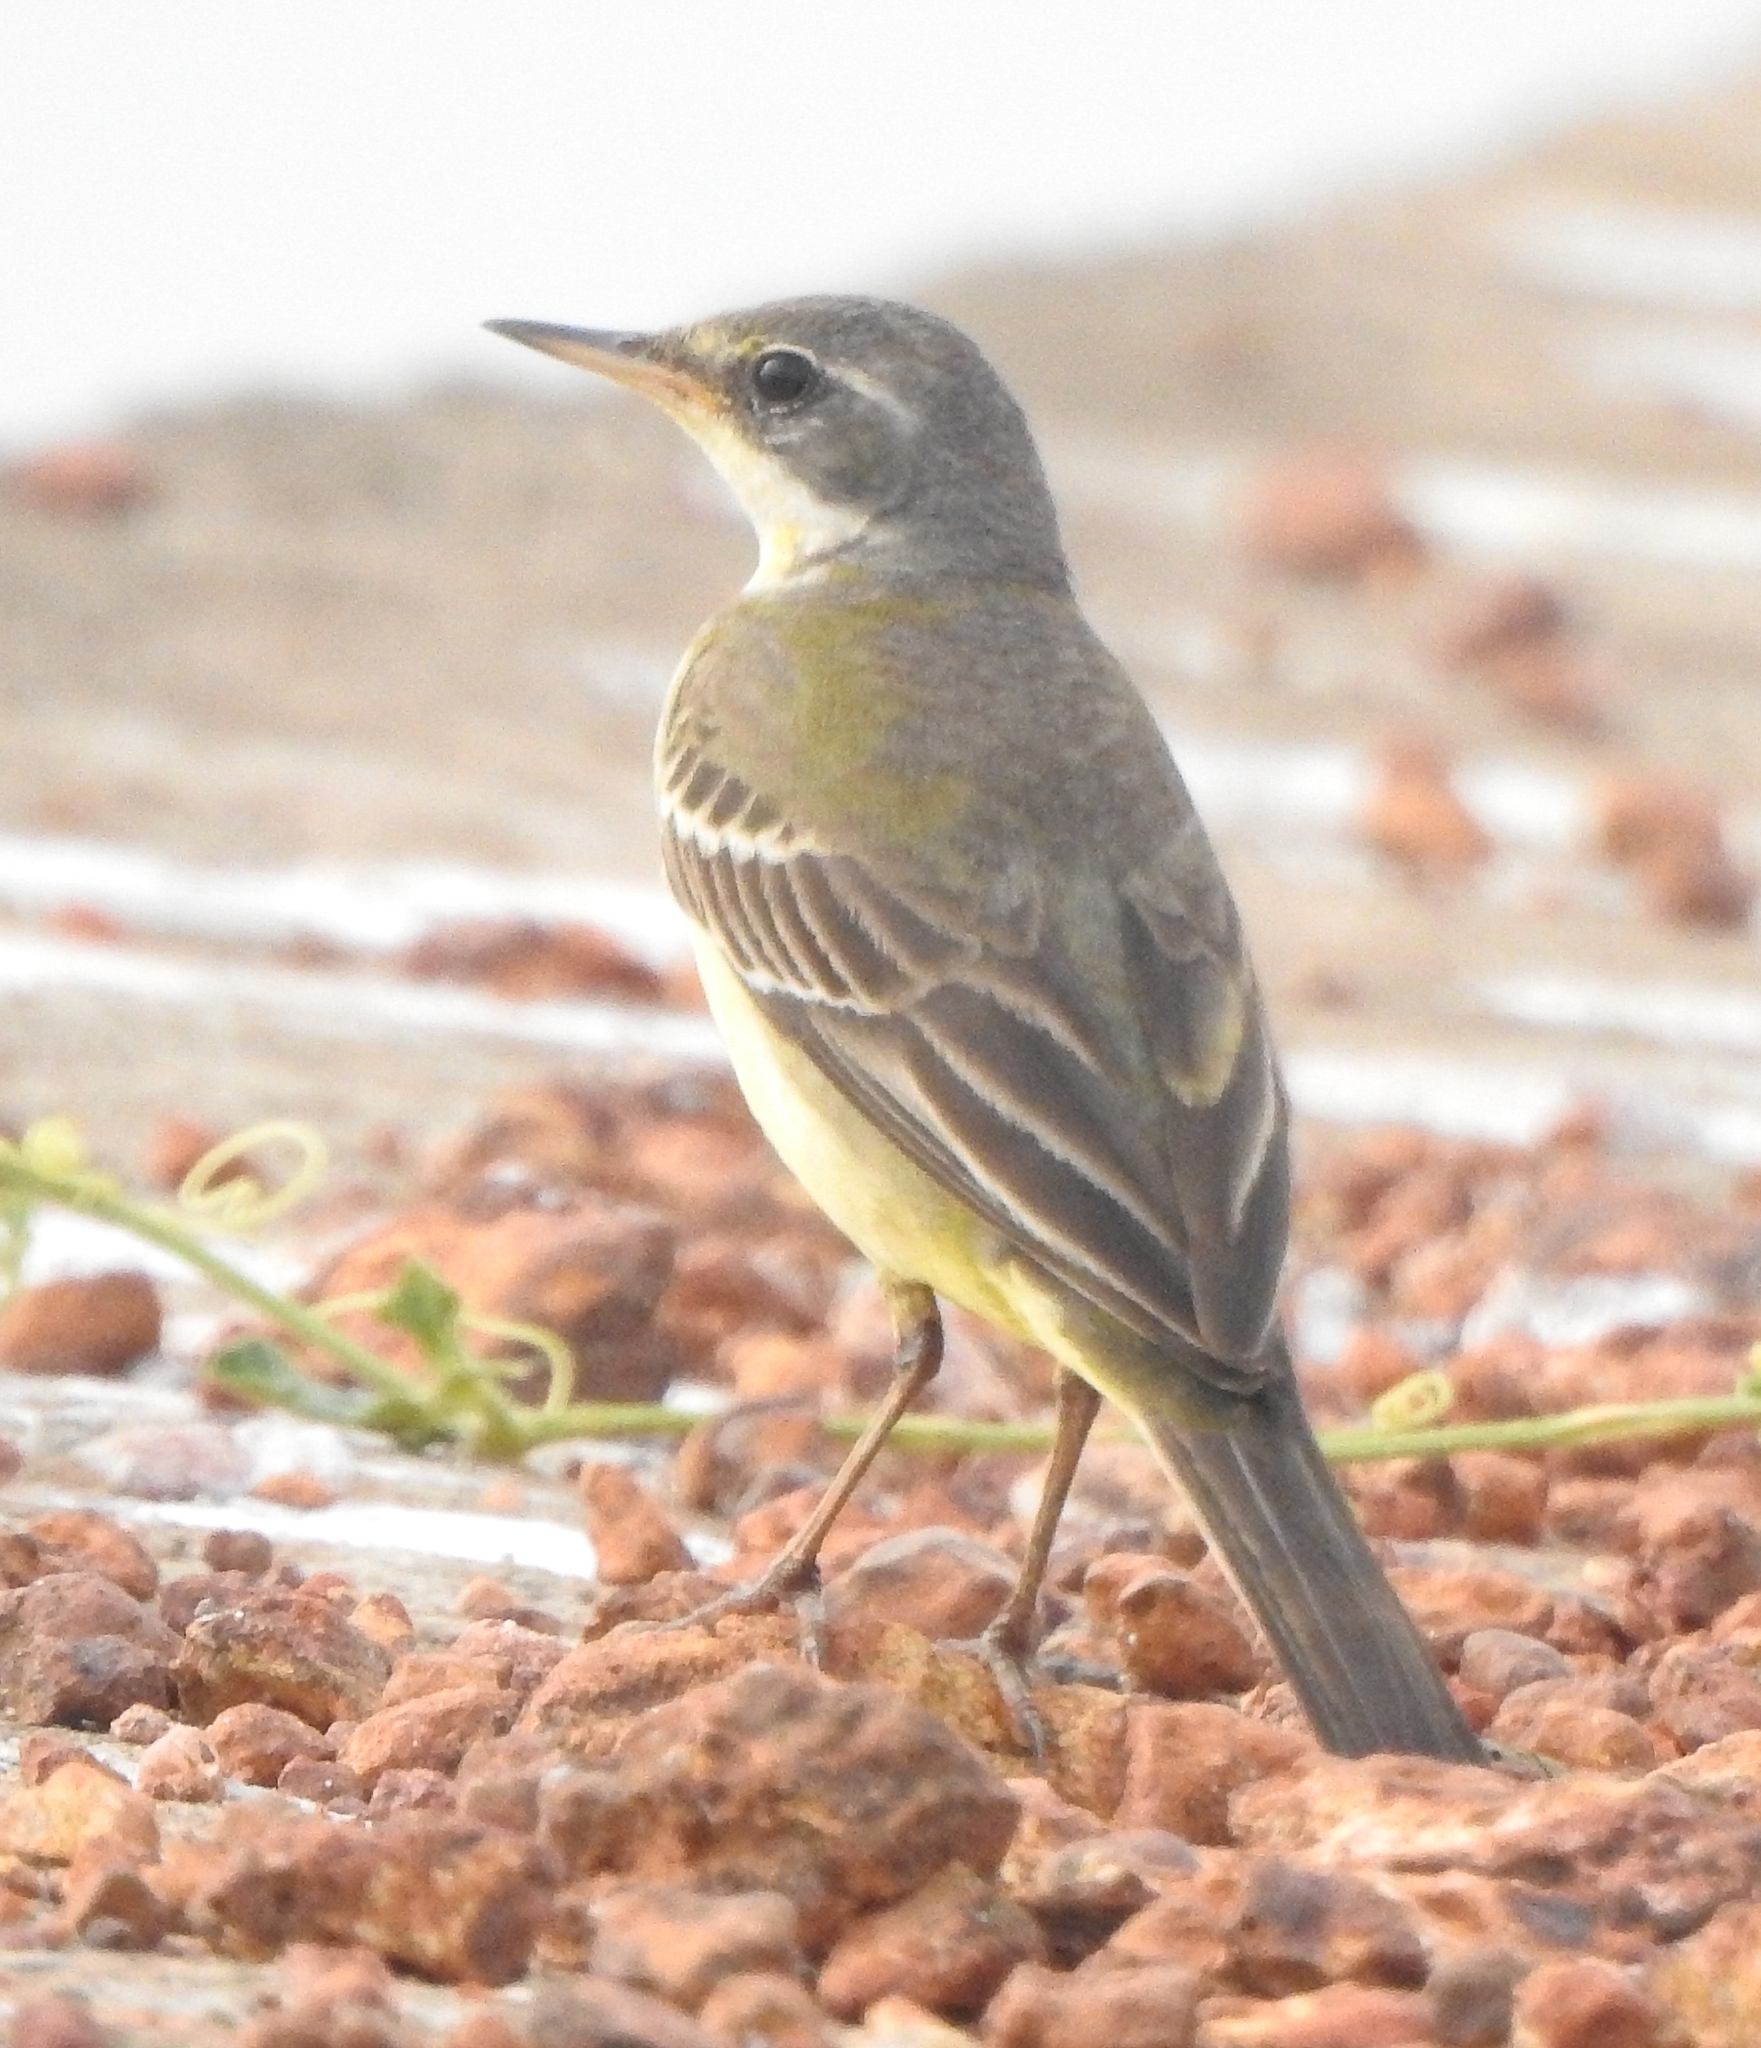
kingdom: Animalia
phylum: Chordata
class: Aves
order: Passeriformes
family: Motacillidae
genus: Motacilla
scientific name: Motacilla tschutschensis
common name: Eastern yellow wagtail
